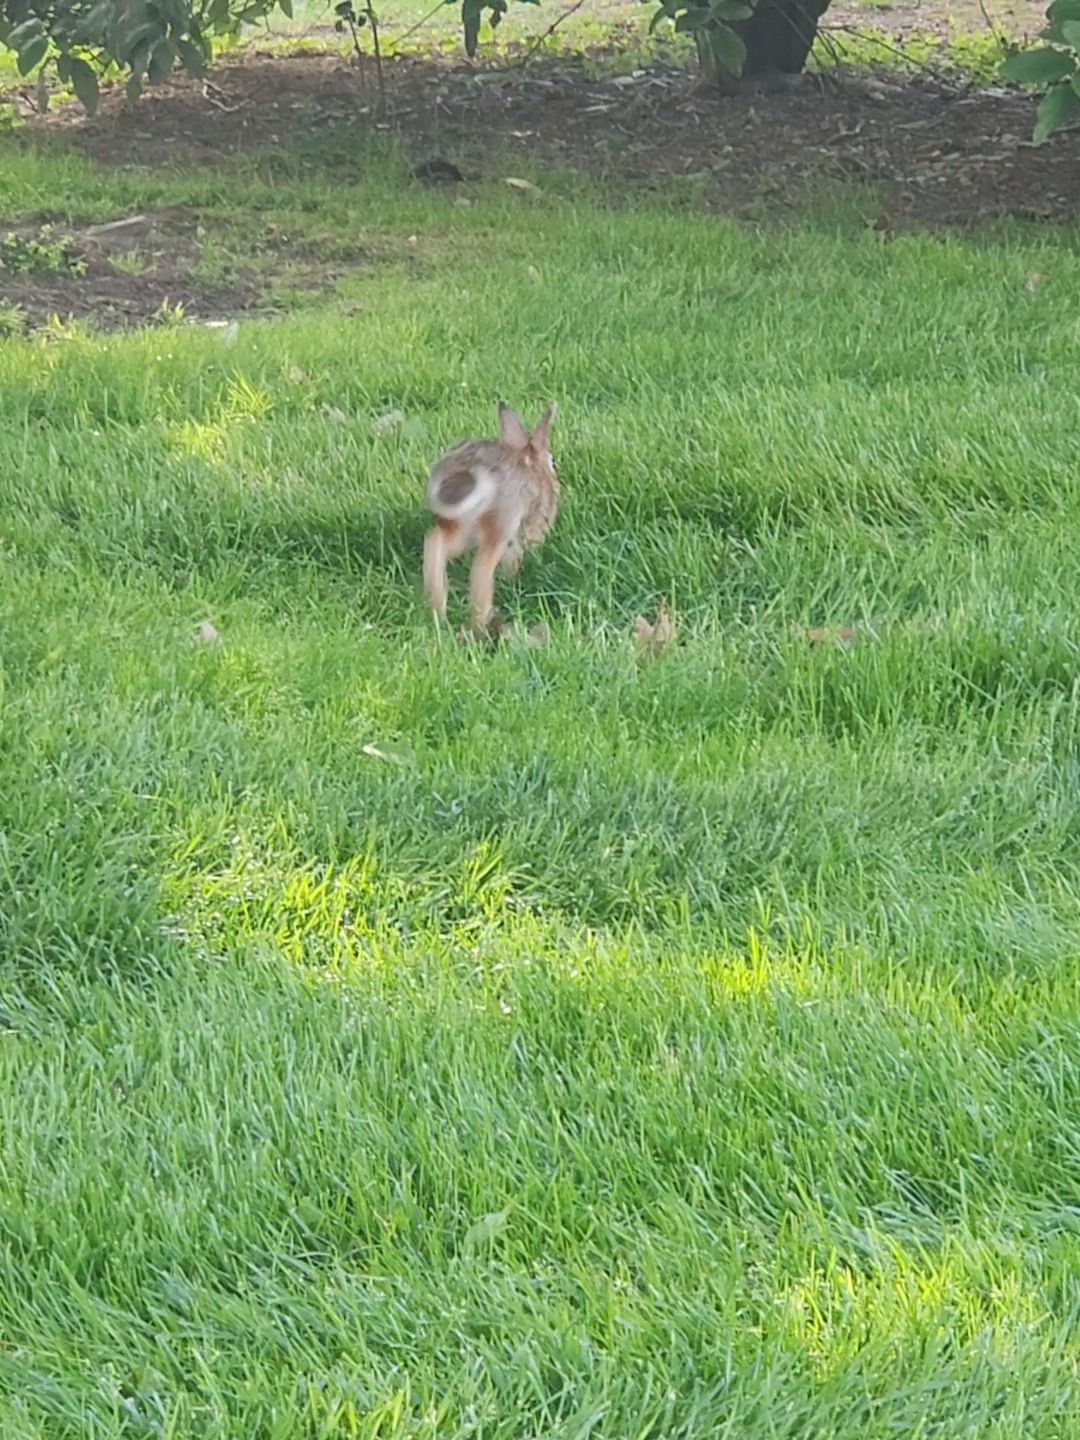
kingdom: Animalia
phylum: Chordata
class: Mammalia
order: Lagomorpha
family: Leporidae
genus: Sylvilagus
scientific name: Sylvilagus floridanus
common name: Eastern cottontail
